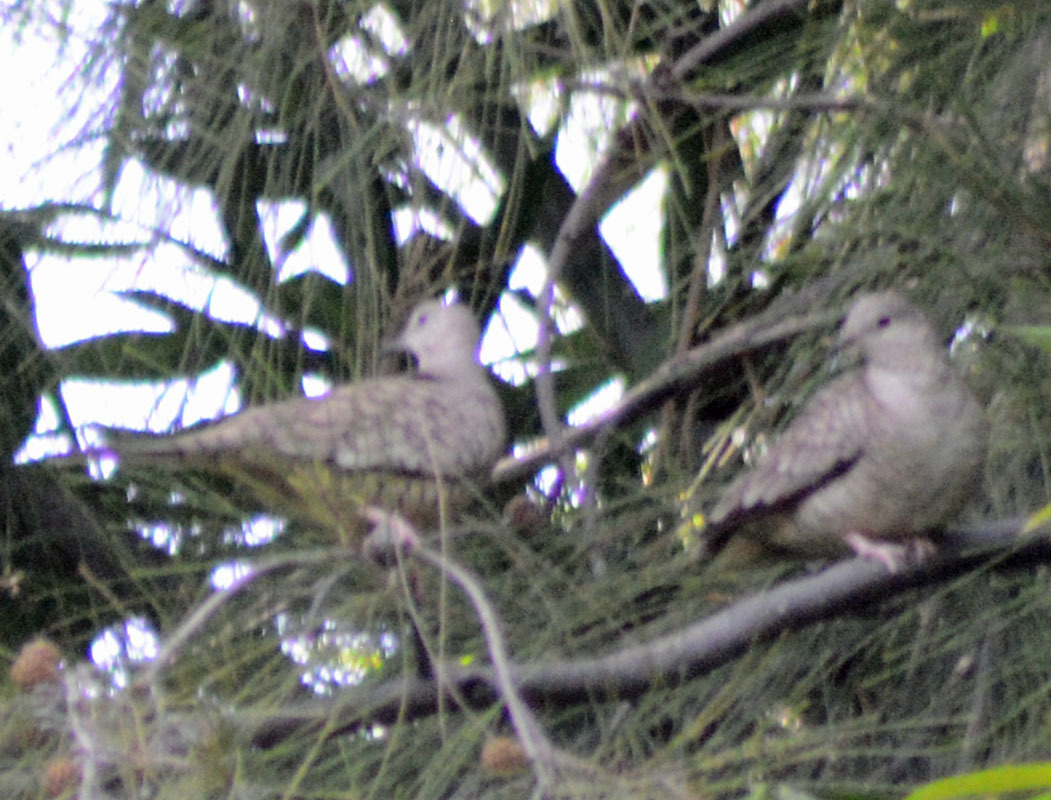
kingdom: Animalia
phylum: Chordata
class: Aves
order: Columbiformes
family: Columbidae
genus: Columbina
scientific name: Columbina inca
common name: Inca dove
